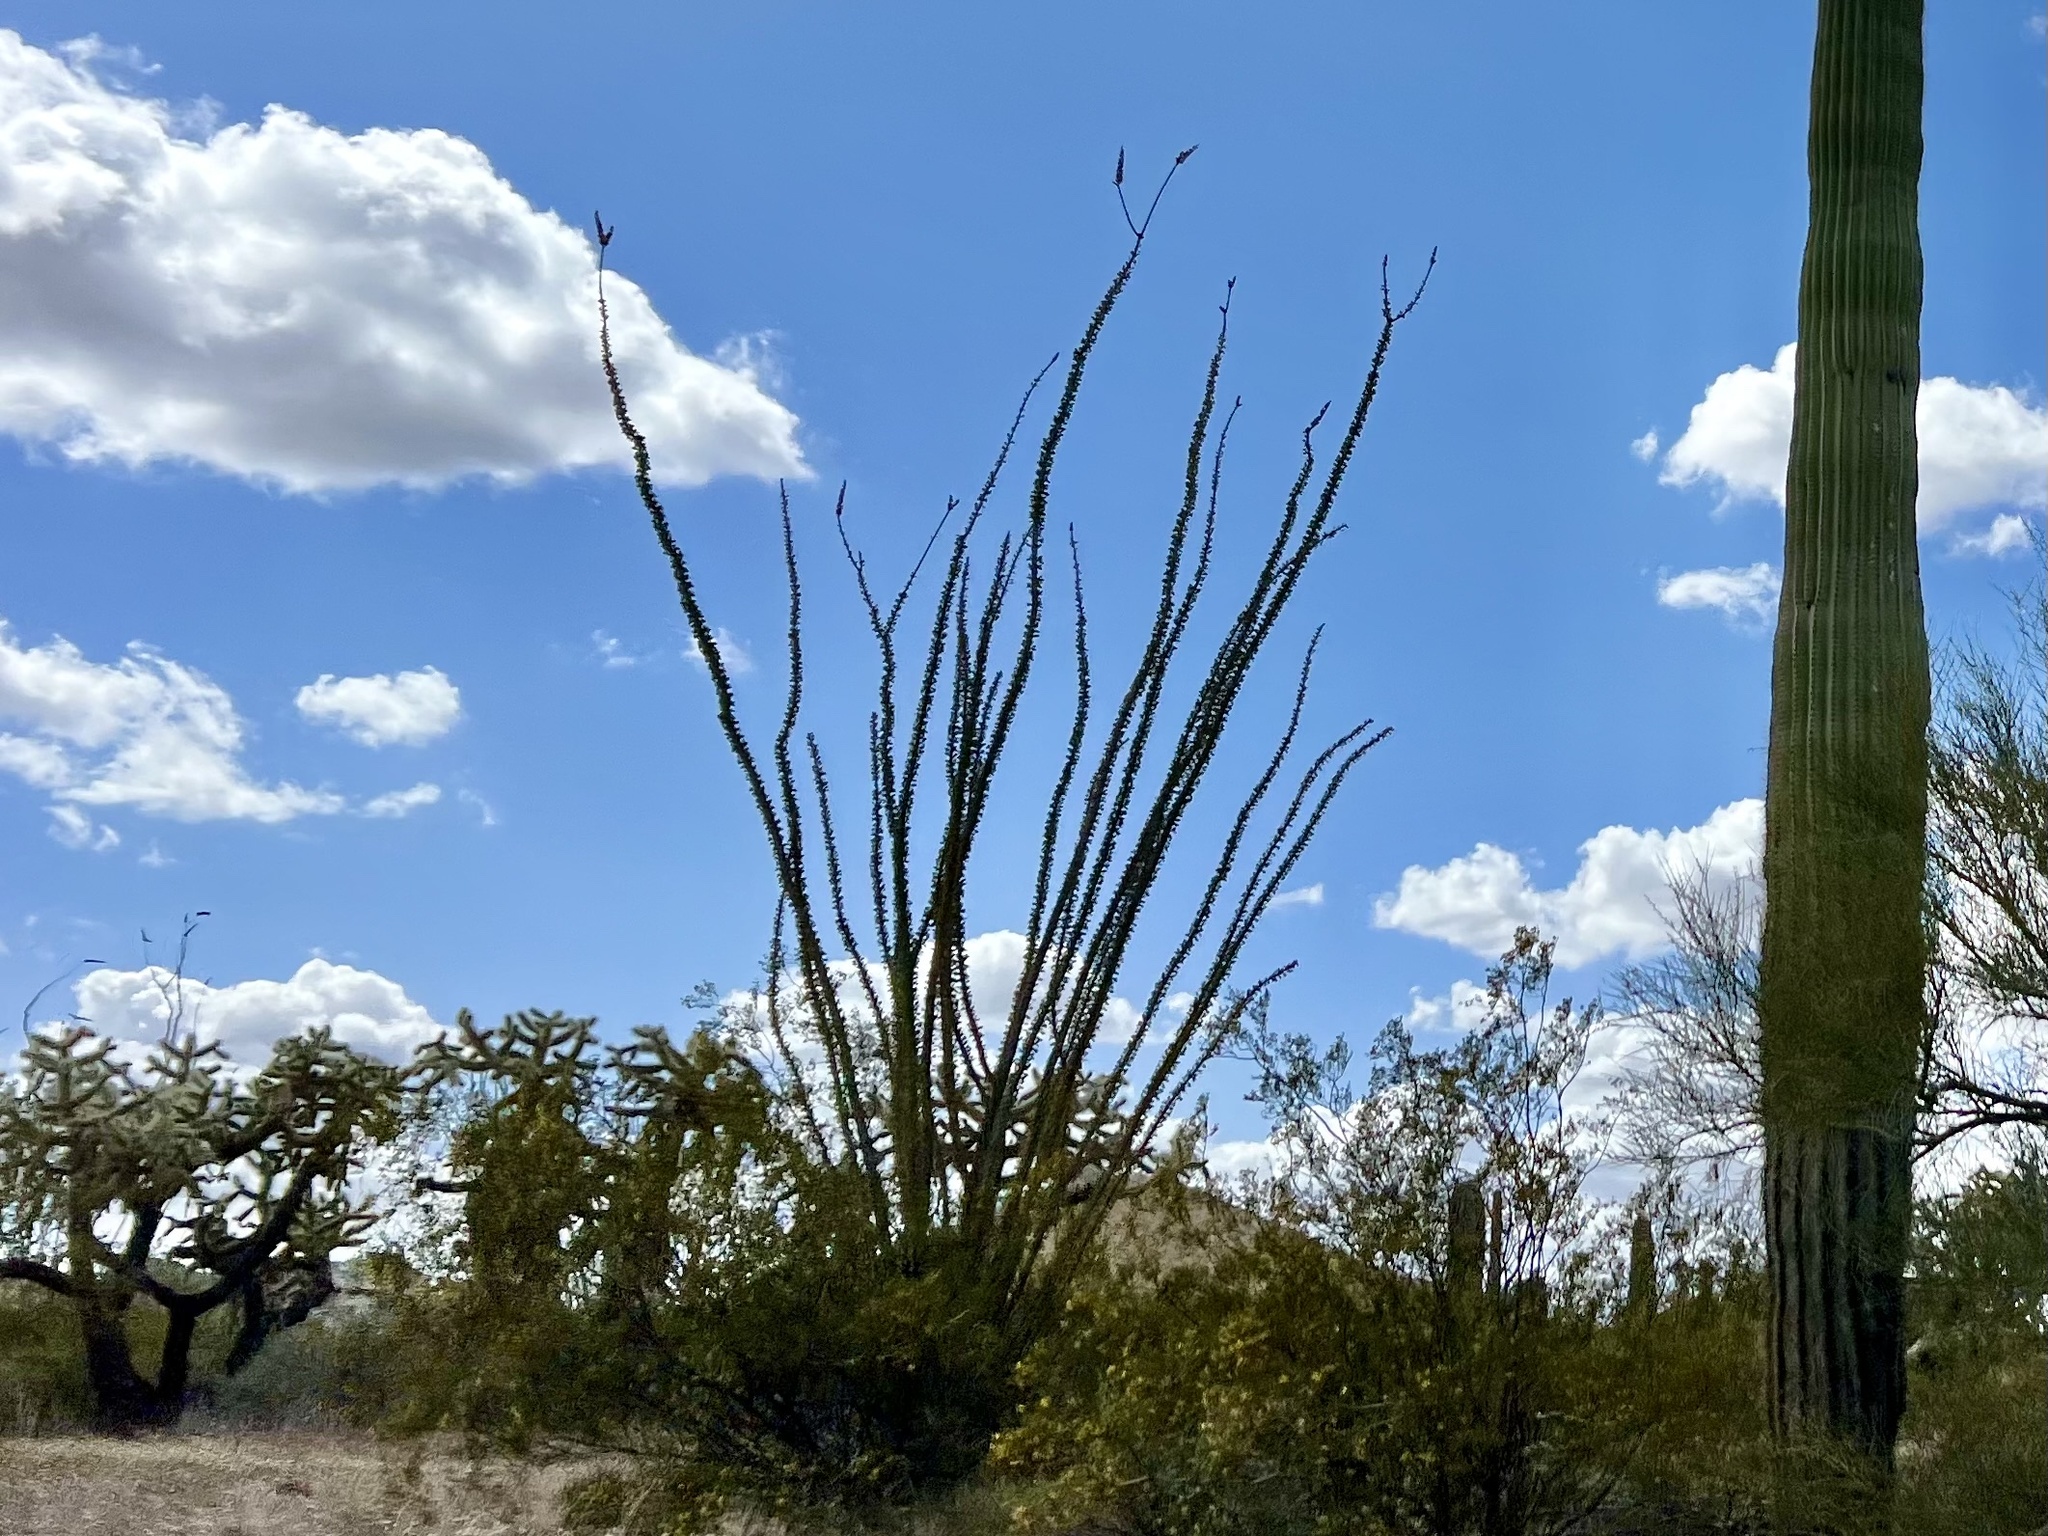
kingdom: Plantae
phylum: Tracheophyta
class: Magnoliopsida
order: Ericales
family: Fouquieriaceae
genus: Fouquieria
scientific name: Fouquieria splendens
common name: Vine-cactus
